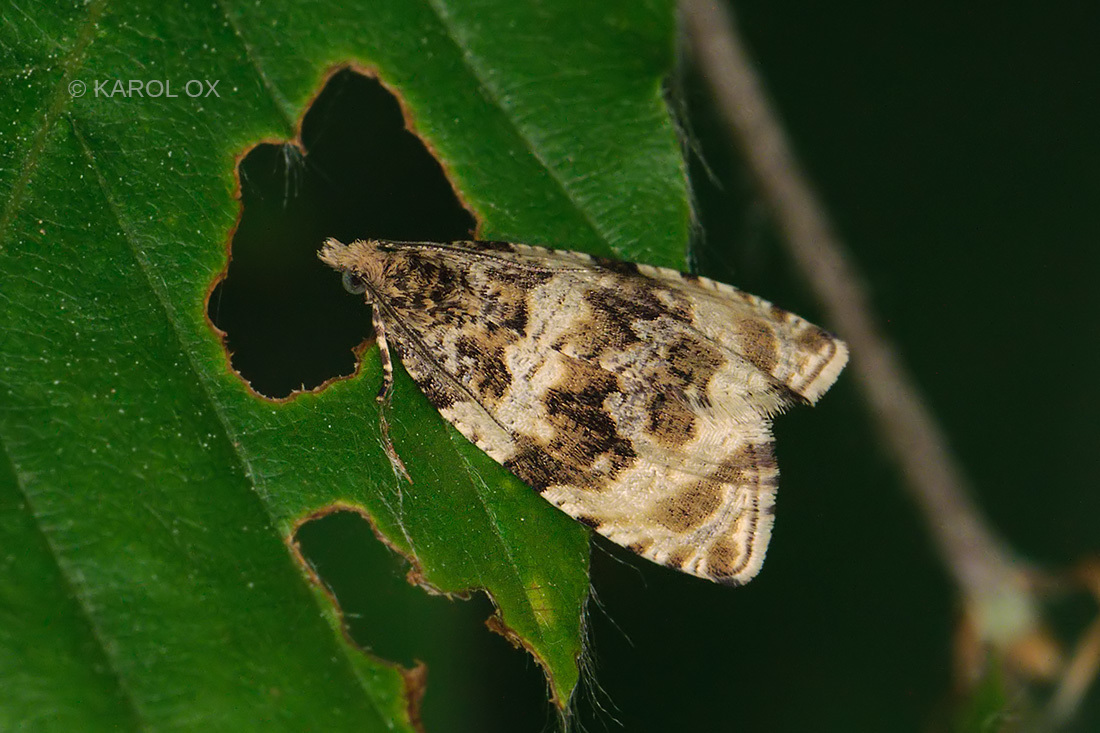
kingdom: Animalia
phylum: Arthropoda
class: Insecta
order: Lepidoptera
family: Tortricidae
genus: Orthotaenia
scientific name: Orthotaenia undulana
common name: Woodland marble
